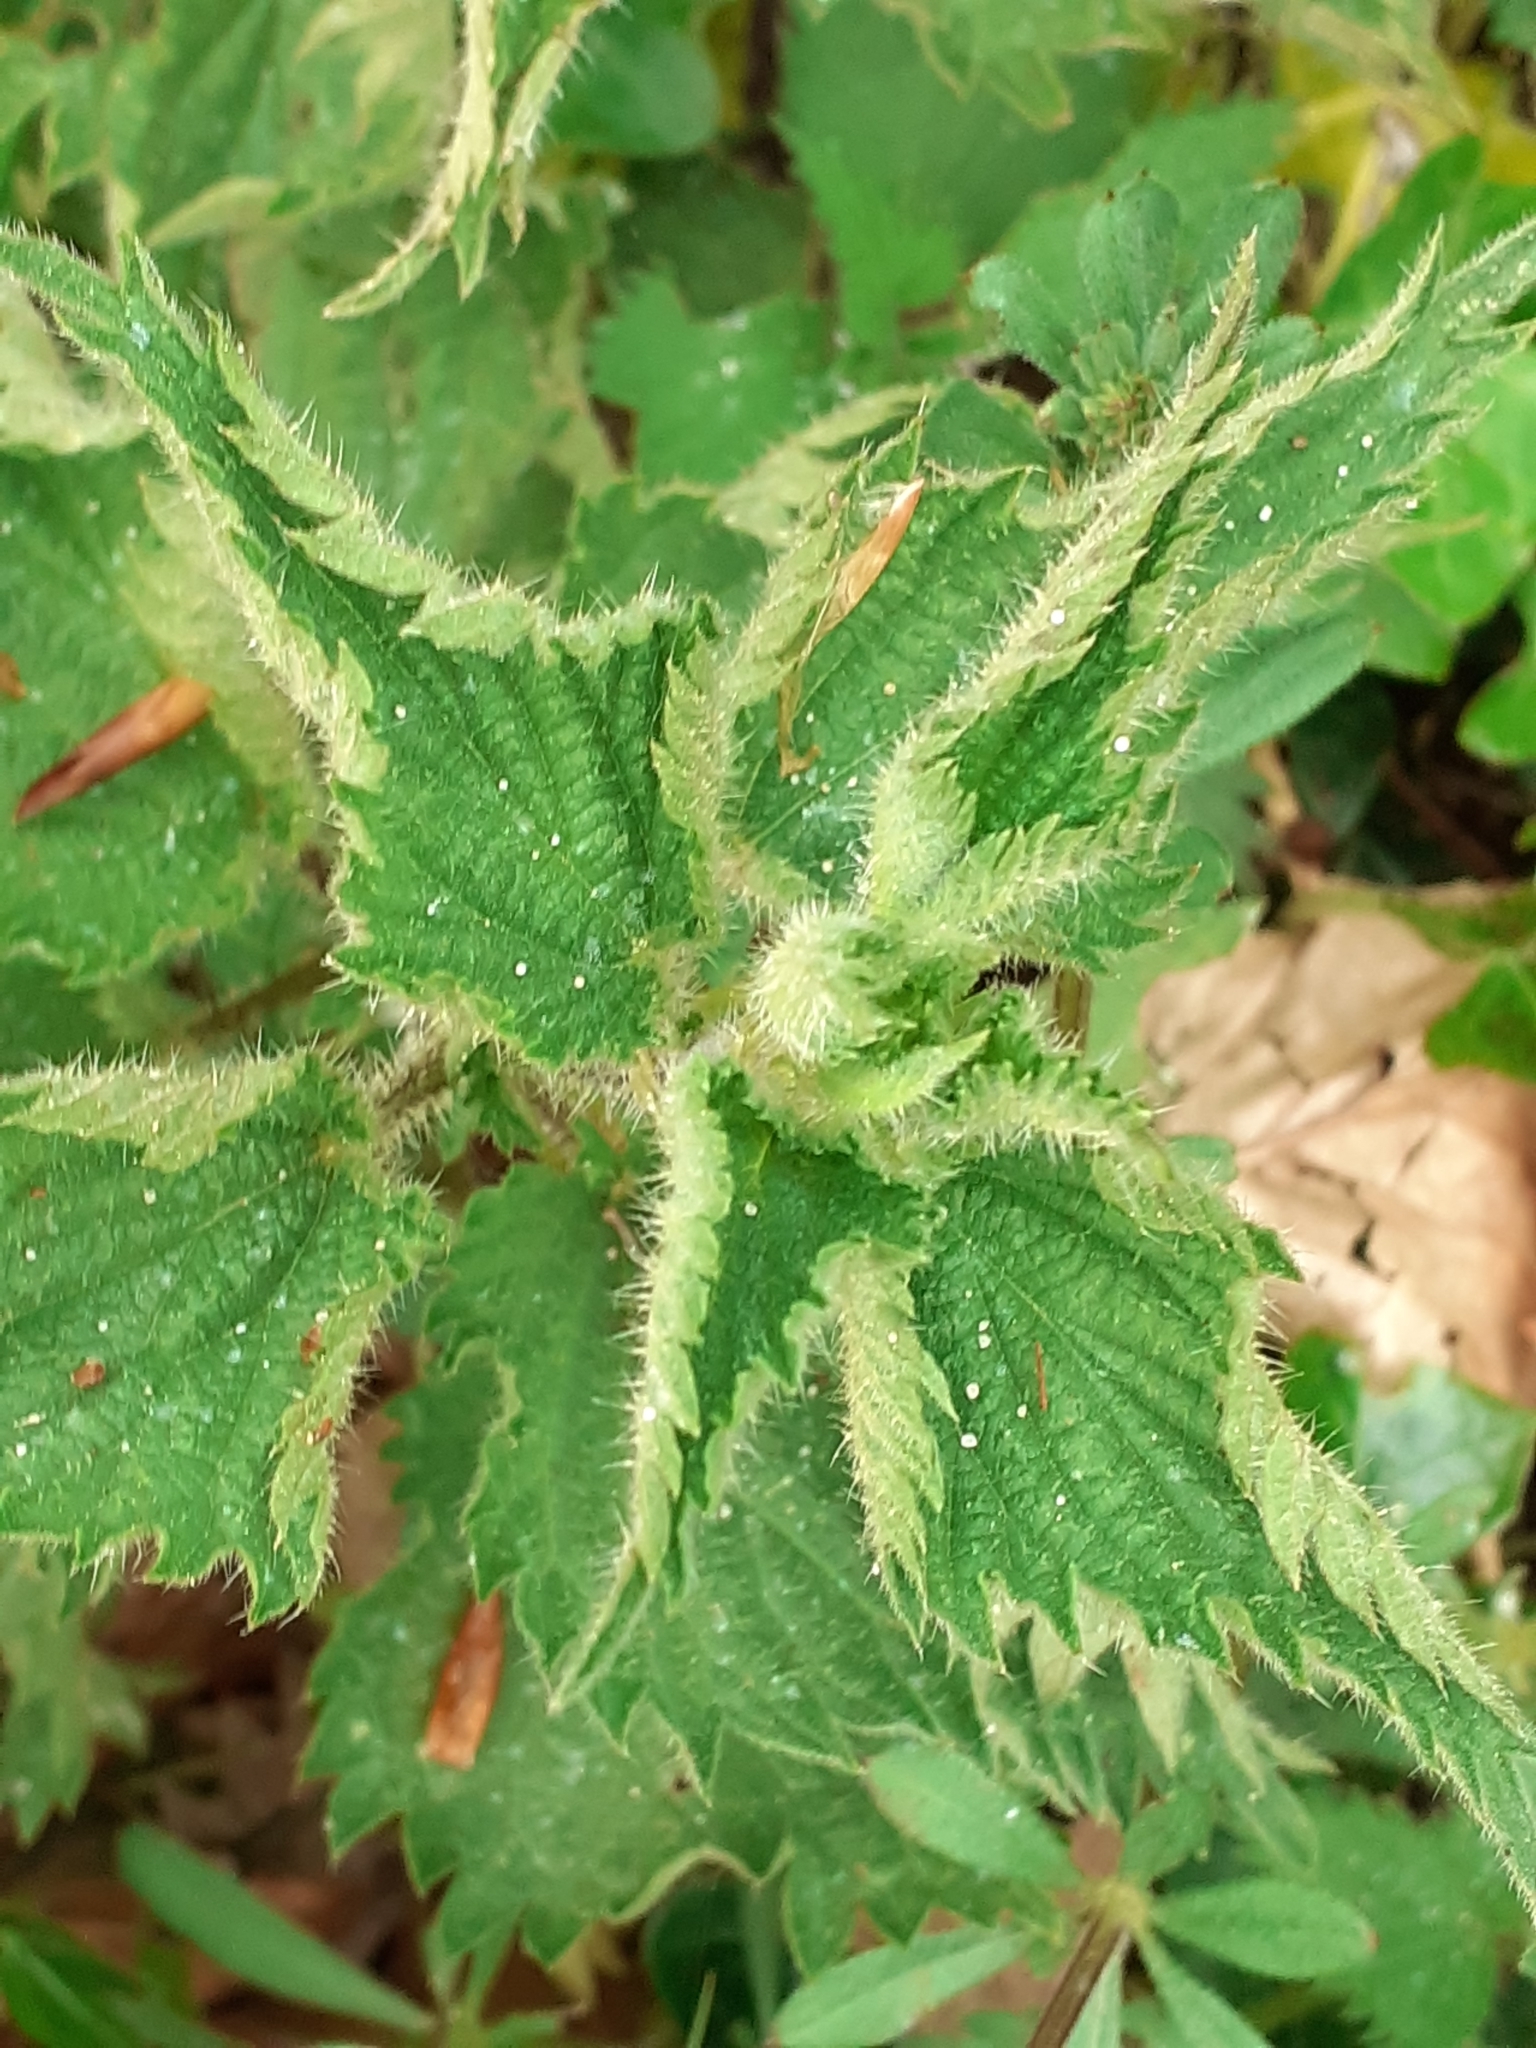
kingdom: Plantae
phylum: Tracheophyta
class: Magnoliopsida
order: Rosales
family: Urticaceae
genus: Urtica
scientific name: Urtica dioica
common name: Common nettle
